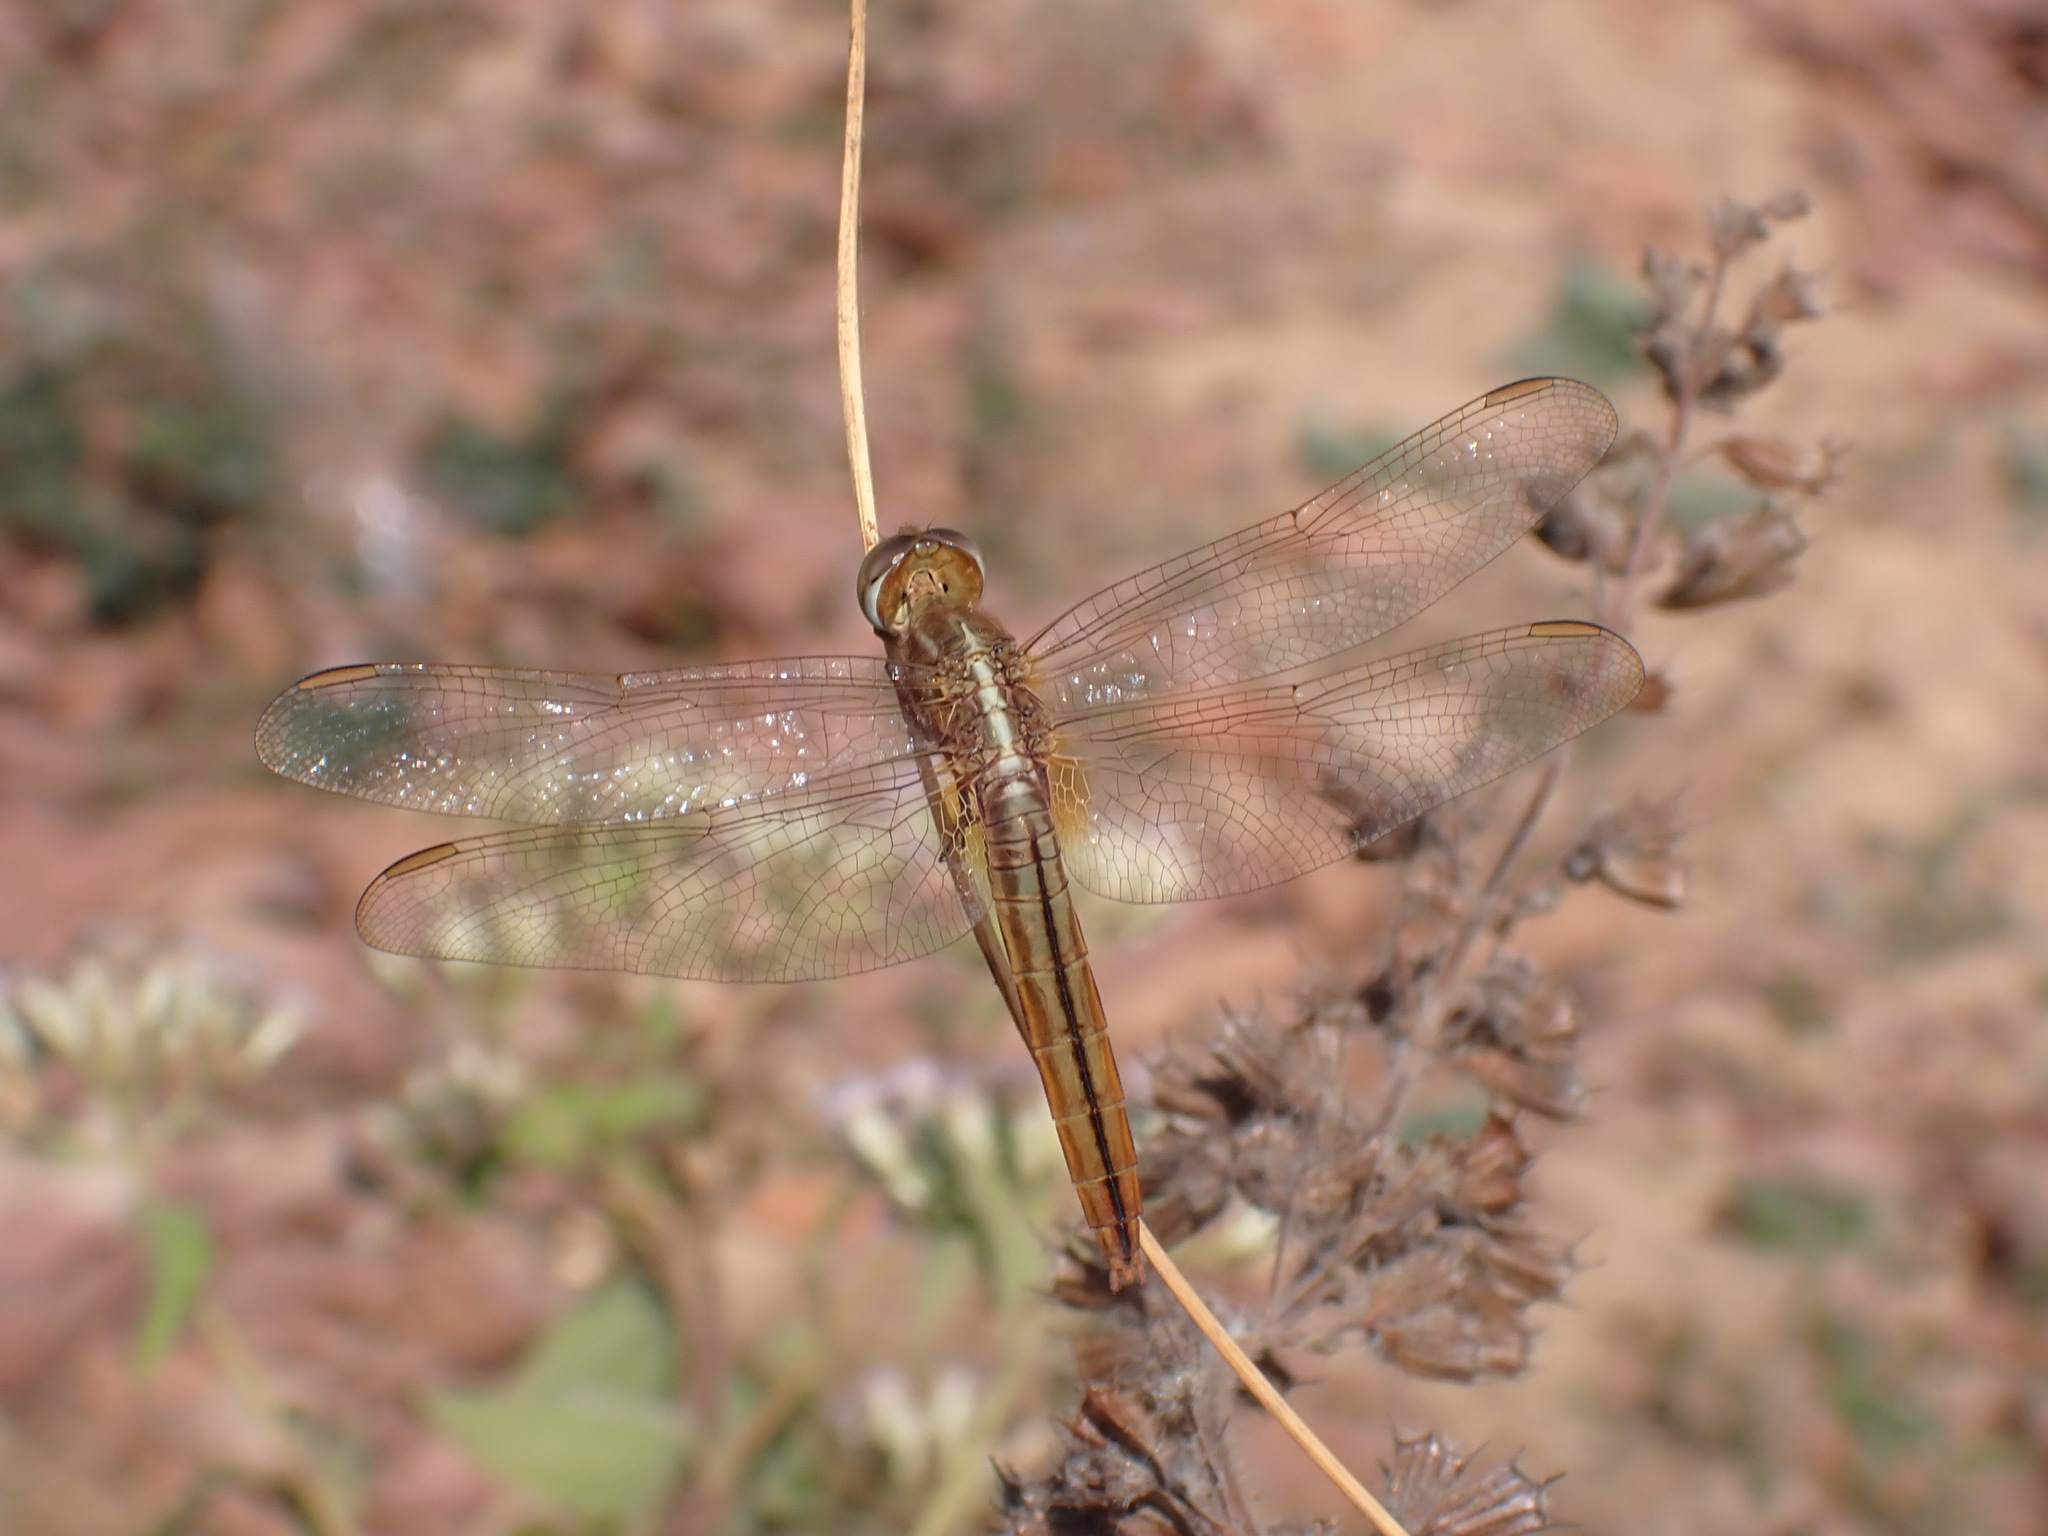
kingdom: Animalia
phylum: Arthropoda
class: Insecta
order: Odonata
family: Libellulidae
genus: Crocothemis
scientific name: Crocothemis servilia
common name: Scarlet skimmer
